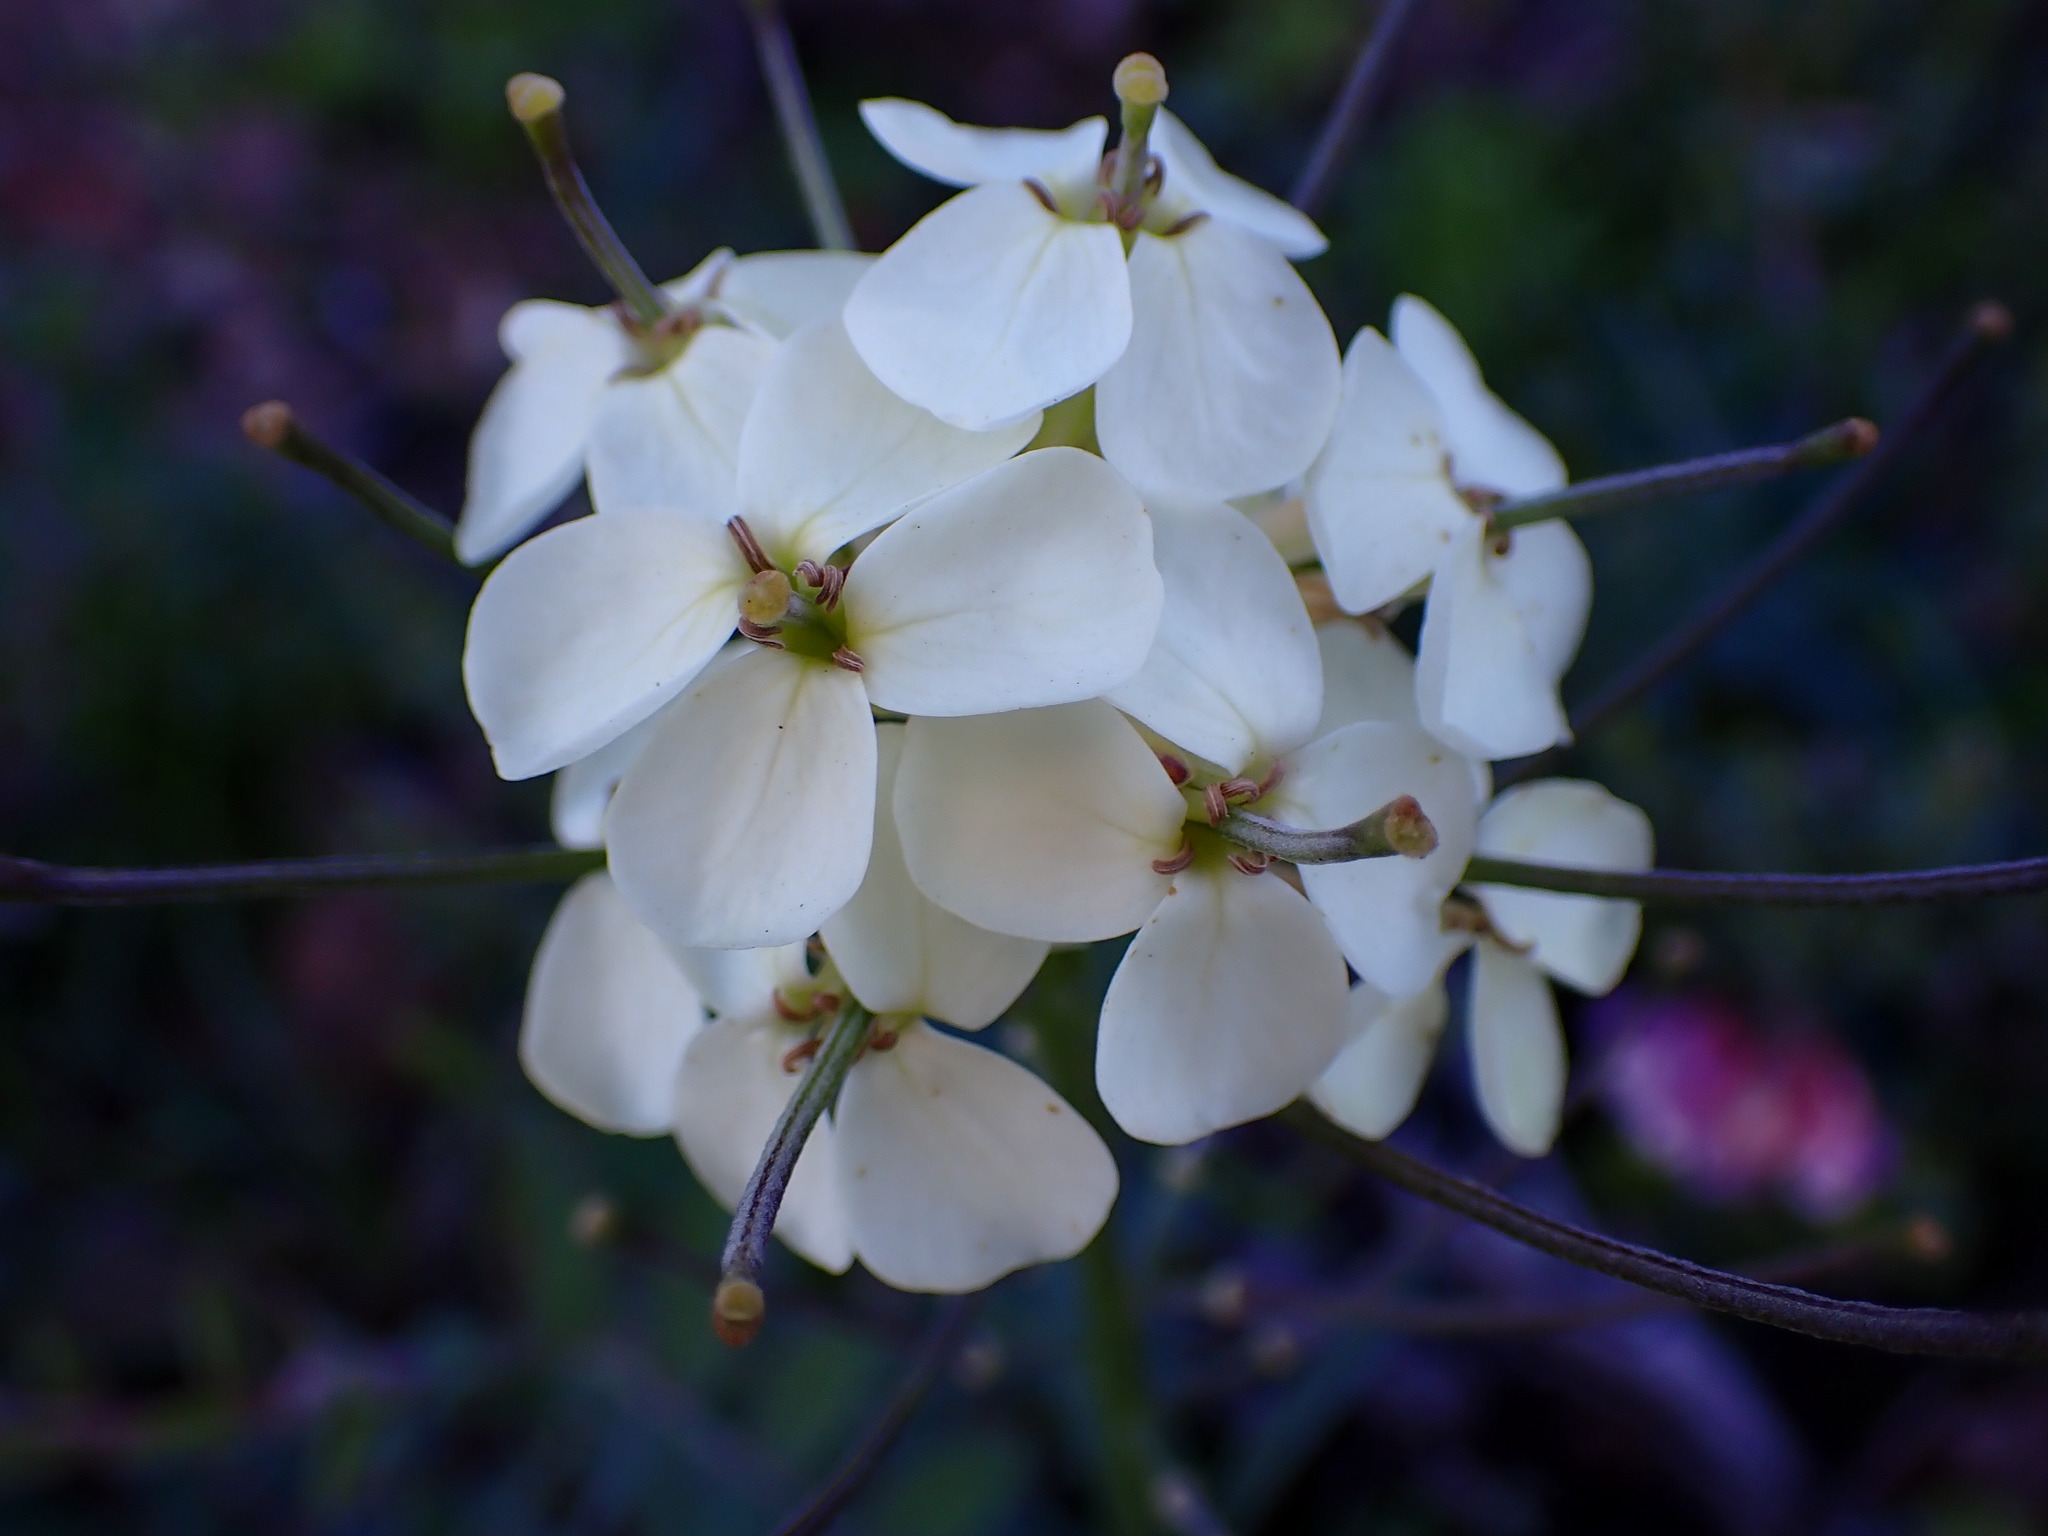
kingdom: Plantae
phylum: Tracheophyta
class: Magnoliopsida
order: Brassicales
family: Brassicaceae
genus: Erysimum
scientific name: Erysimum franciscanum
